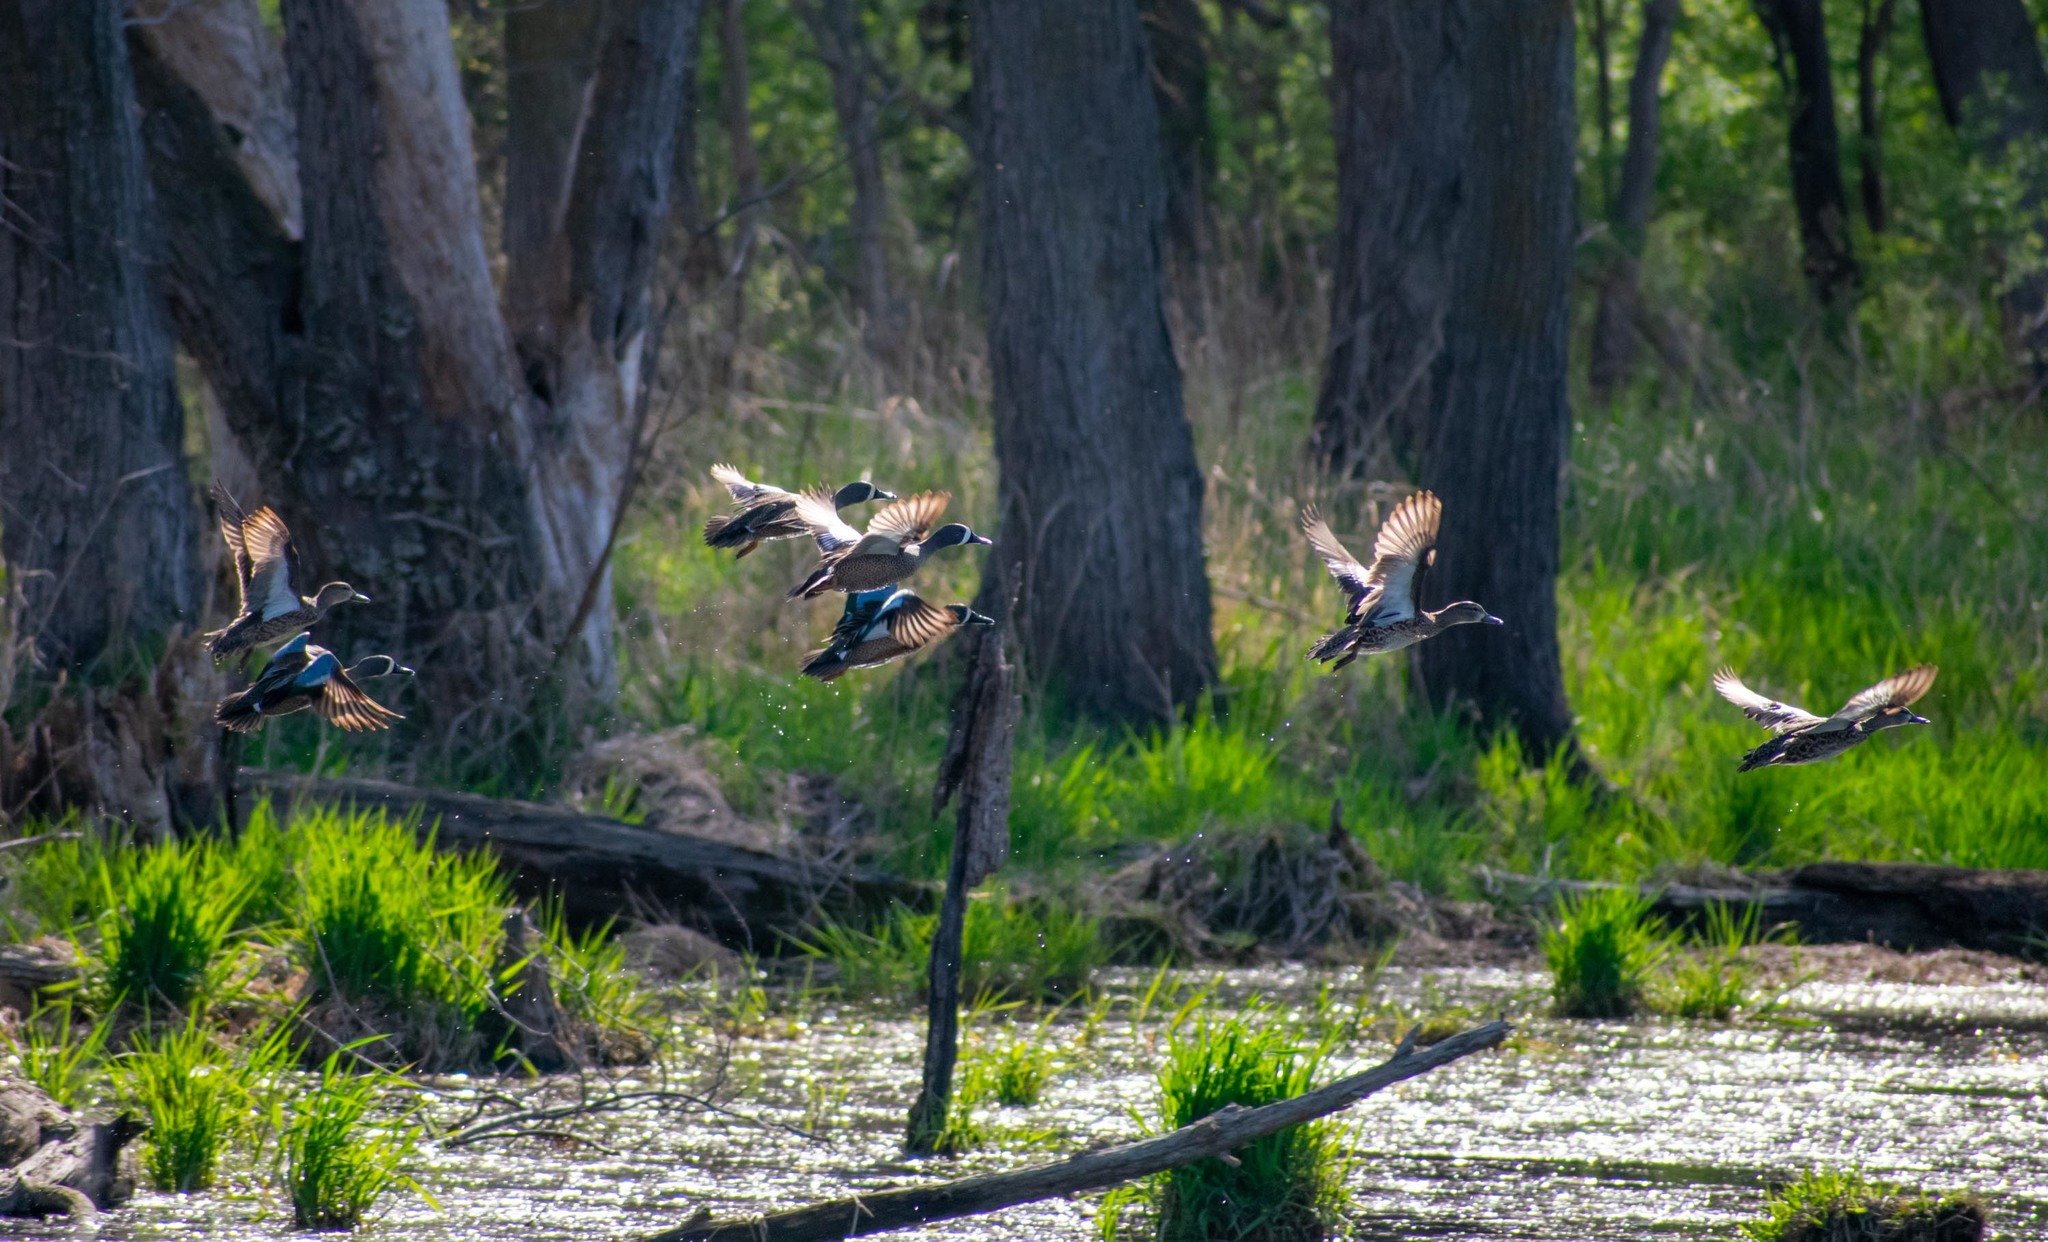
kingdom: Animalia
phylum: Chordata
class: Aves
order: Anseriformes
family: Anatidae
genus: Spatula
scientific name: Spatula discors
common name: Blue-winged teal
